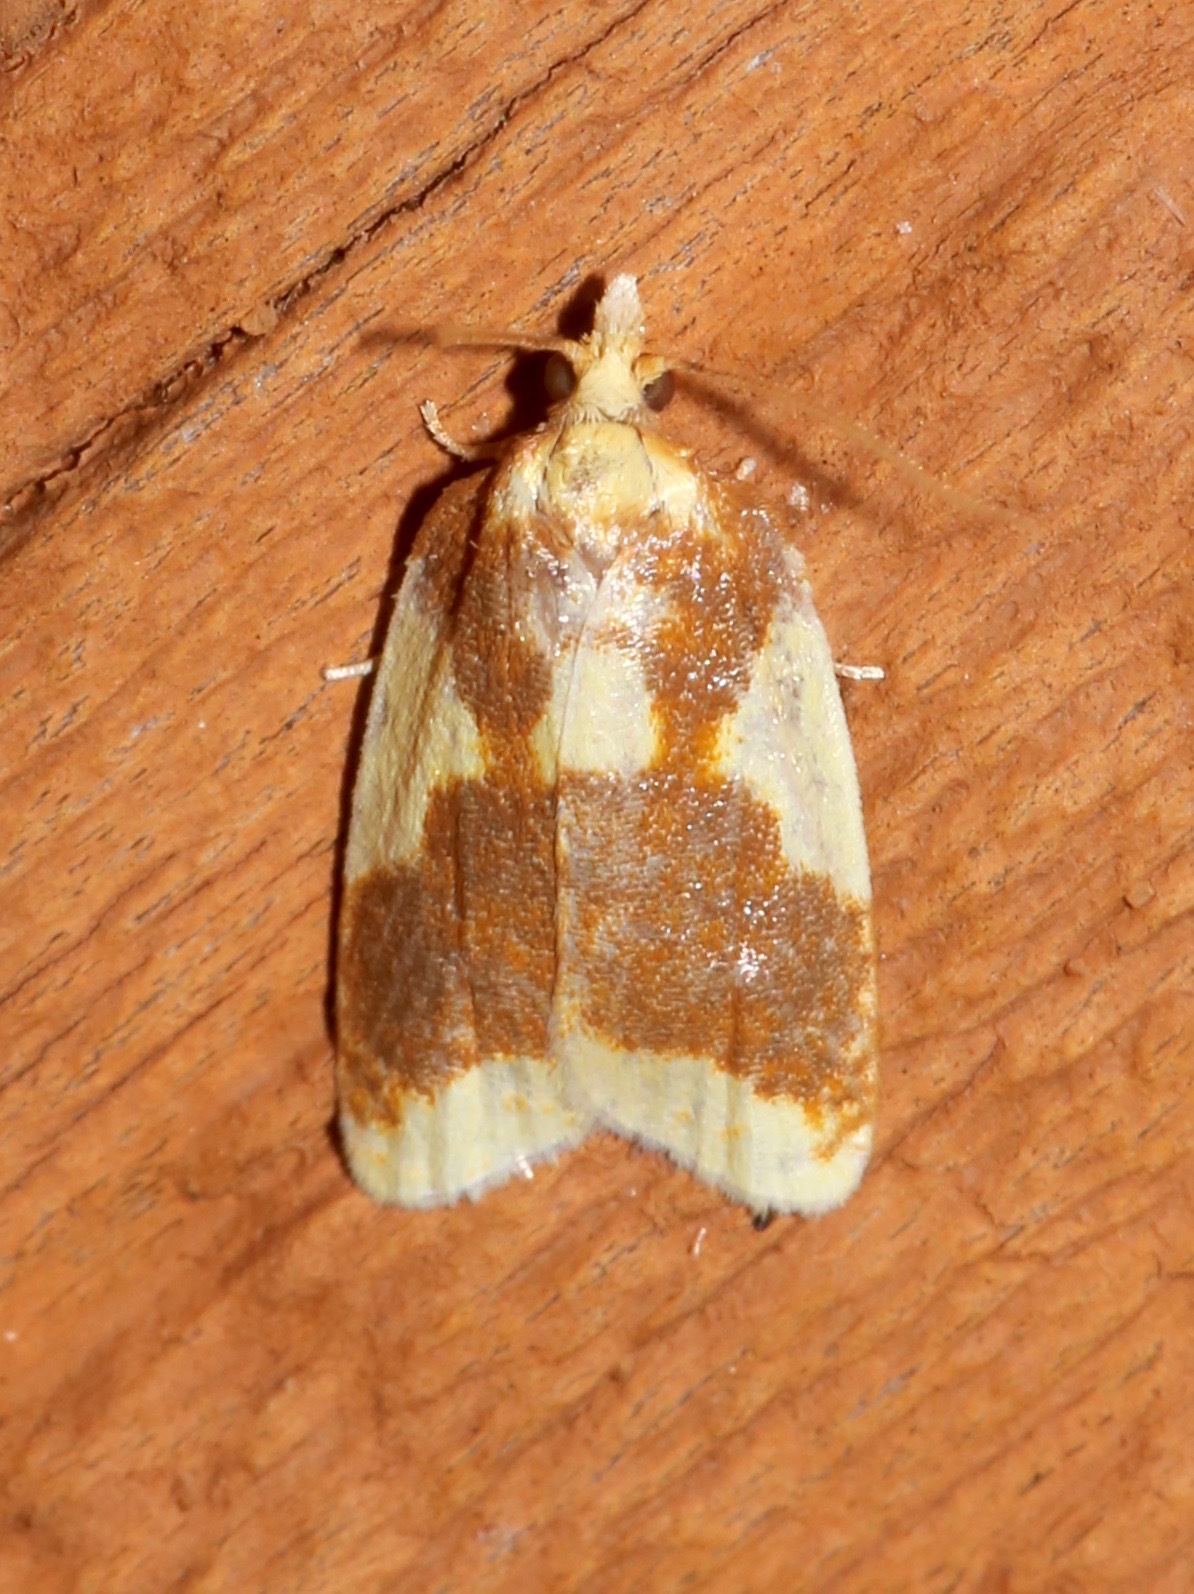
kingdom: Animalia
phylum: Arthropoda
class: Insecta
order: Lepidoptera
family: Tortricidae
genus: Sparganothis
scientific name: Sparganothis pulcherrimana
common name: Beautiful sparganothis
